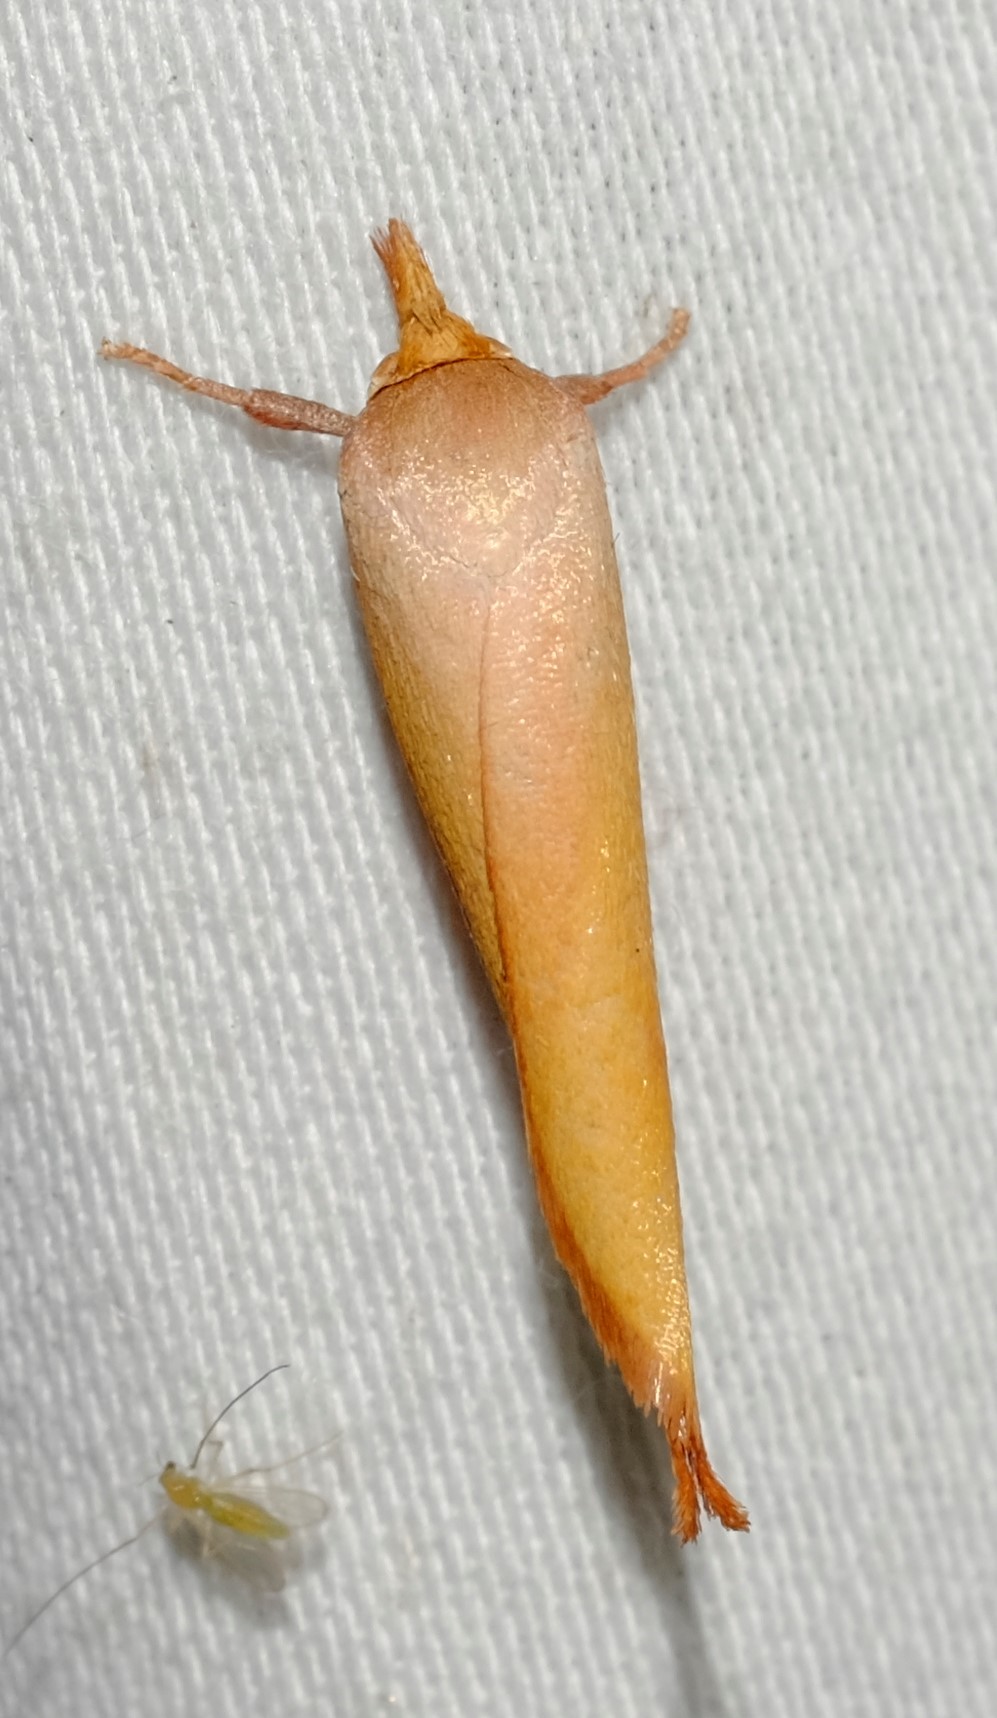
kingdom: Animalia
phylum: Arthropoda
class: Insecta
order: Lepidoptera
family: Oecophoridae
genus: Wingia
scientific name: Wingia aurata
